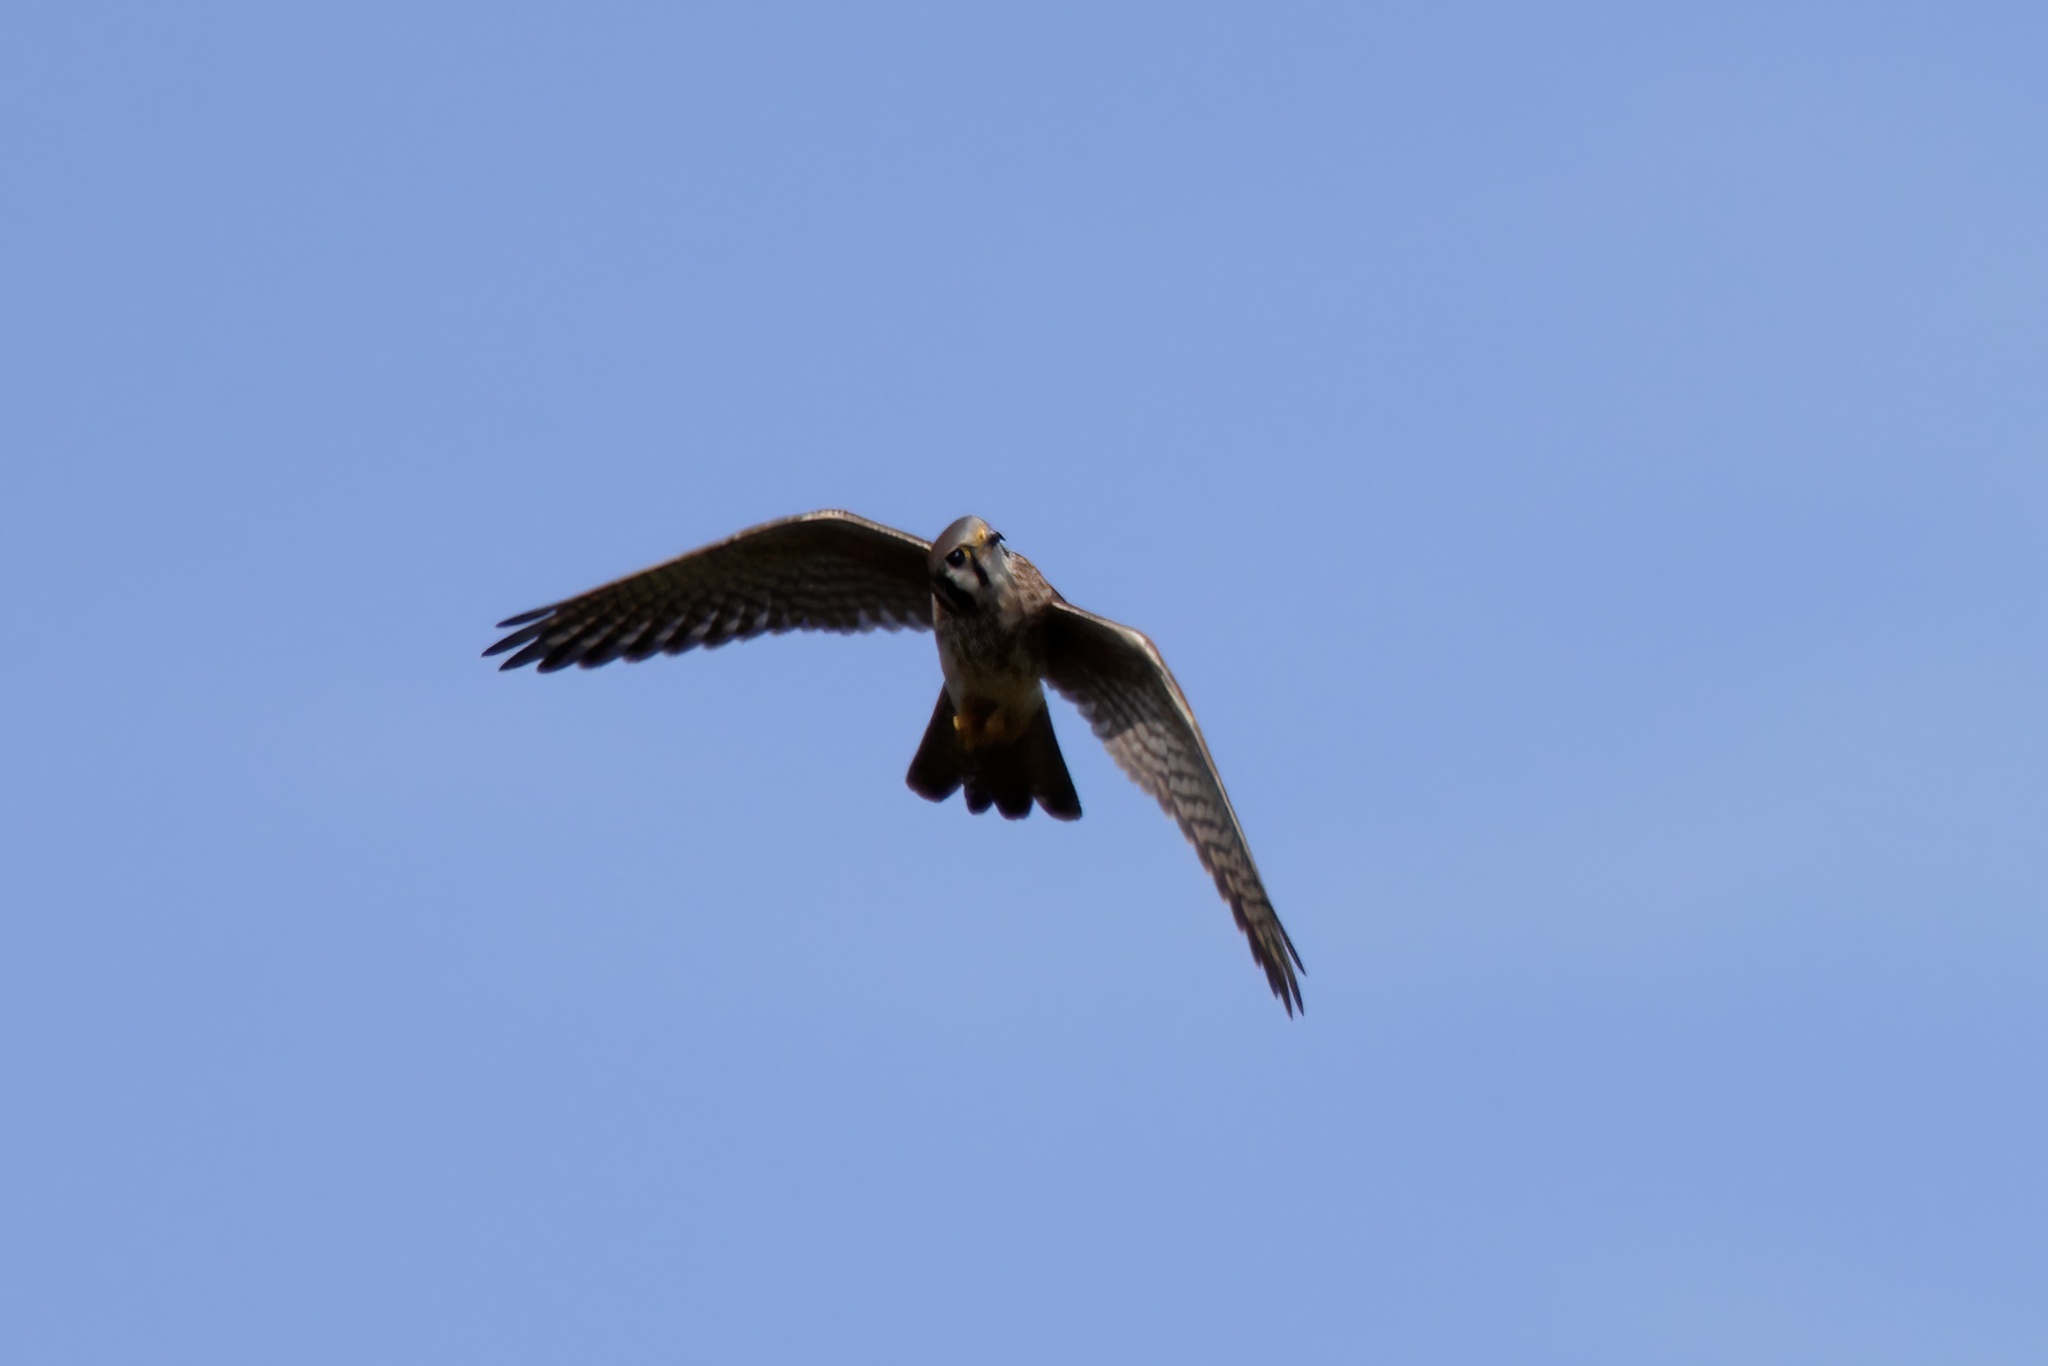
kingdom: Animalia
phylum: Chordata
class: Aves
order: Falconiformes
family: Falconidae
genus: Falco
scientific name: Falco sparverius
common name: American kestrel
